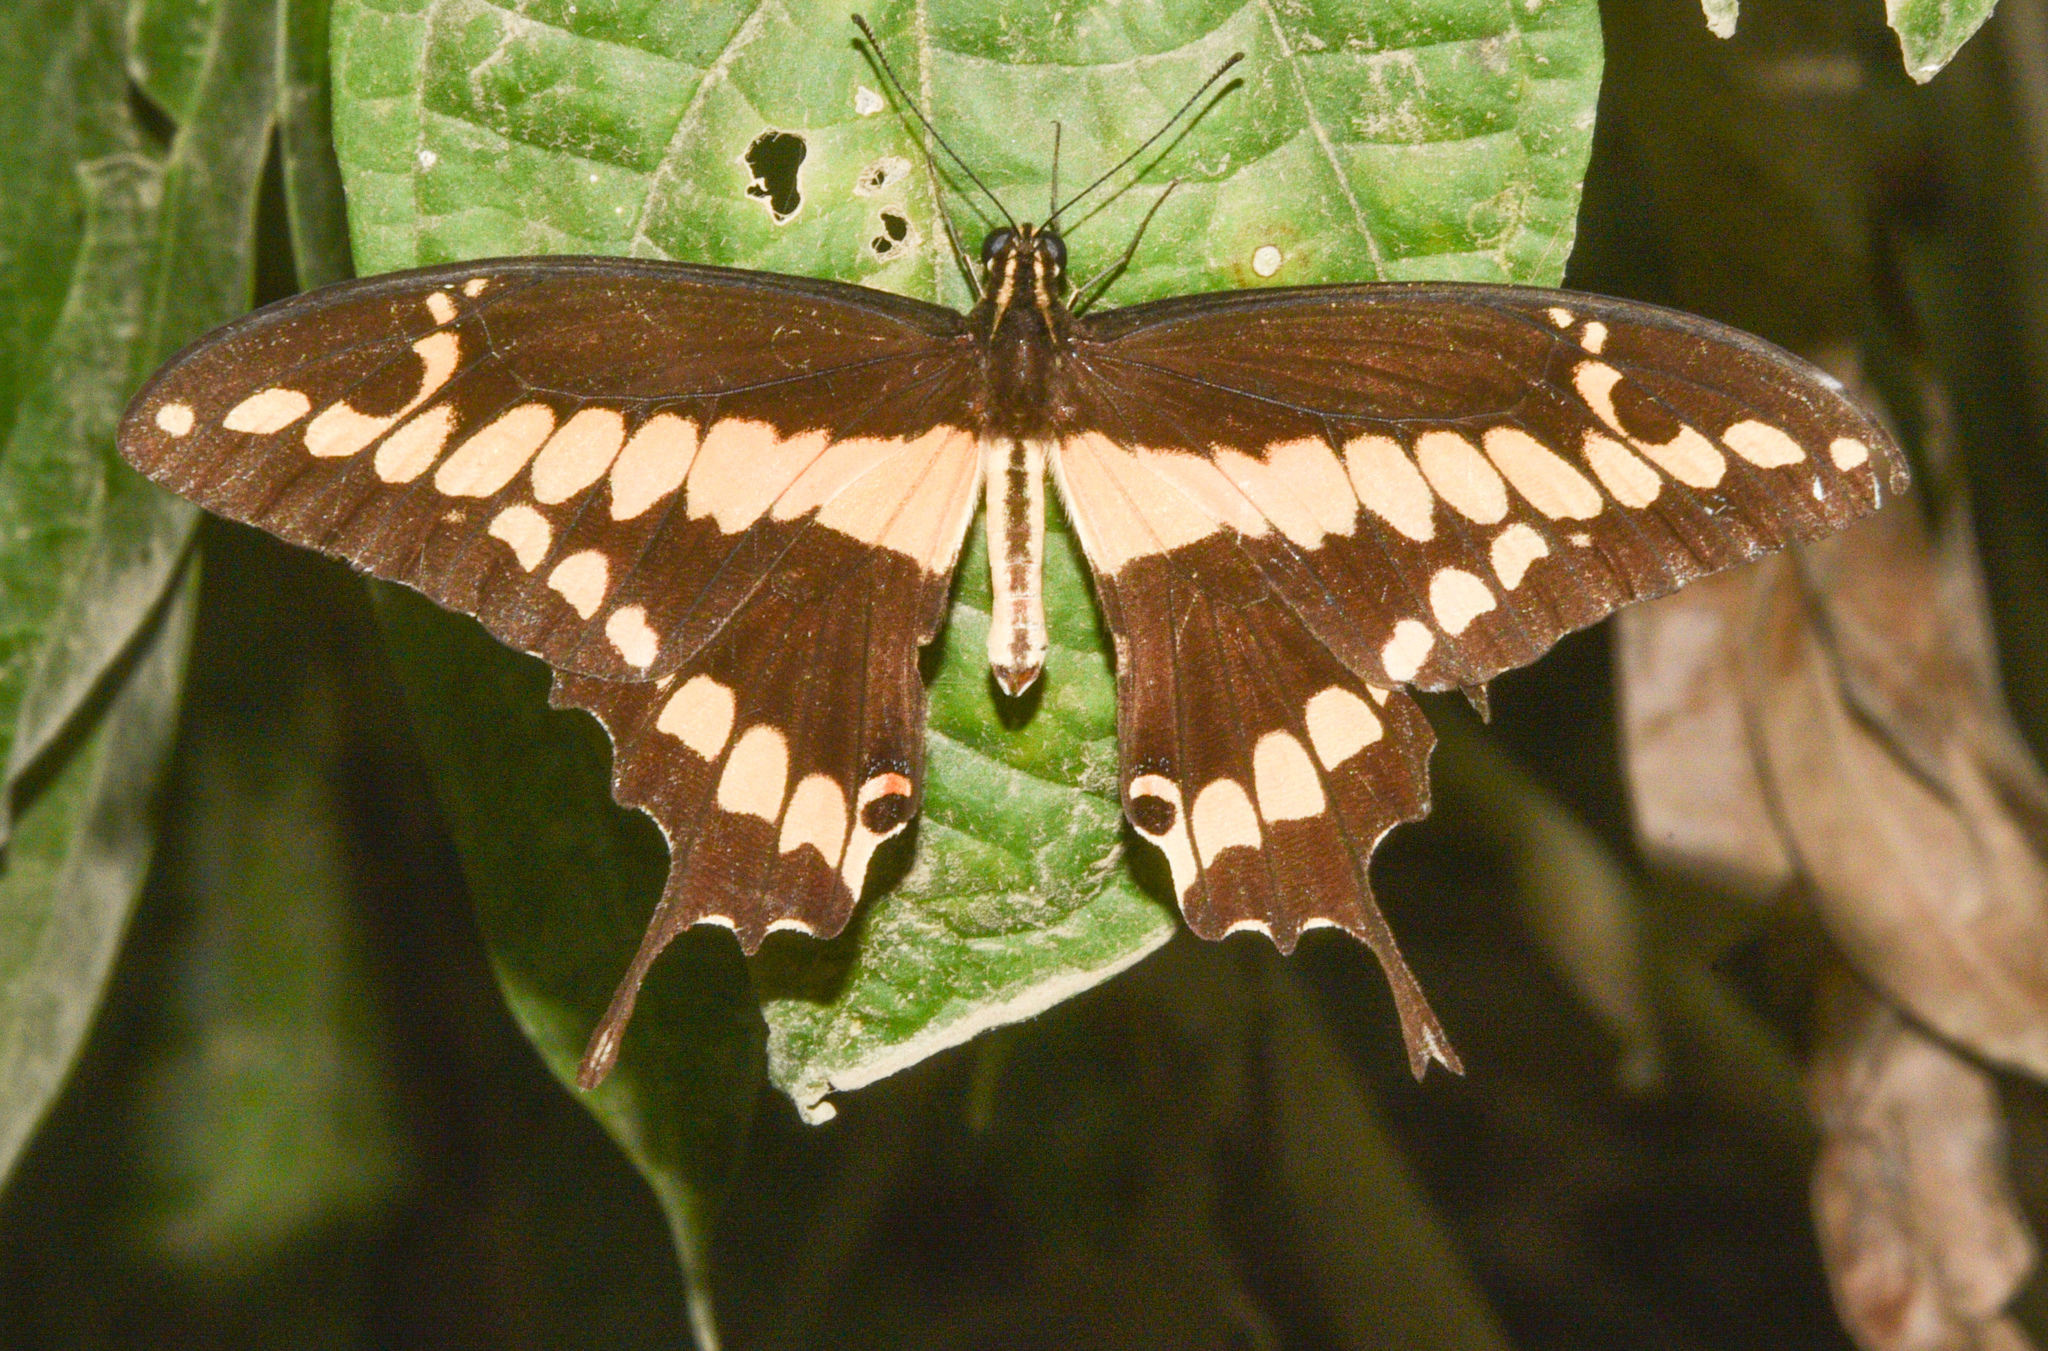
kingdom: Animalia
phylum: Arthropoda
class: Insecta
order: Lepidoptera
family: Papilionidae
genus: Papilio
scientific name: Papilio rumiko
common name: Western giant swallowtail
